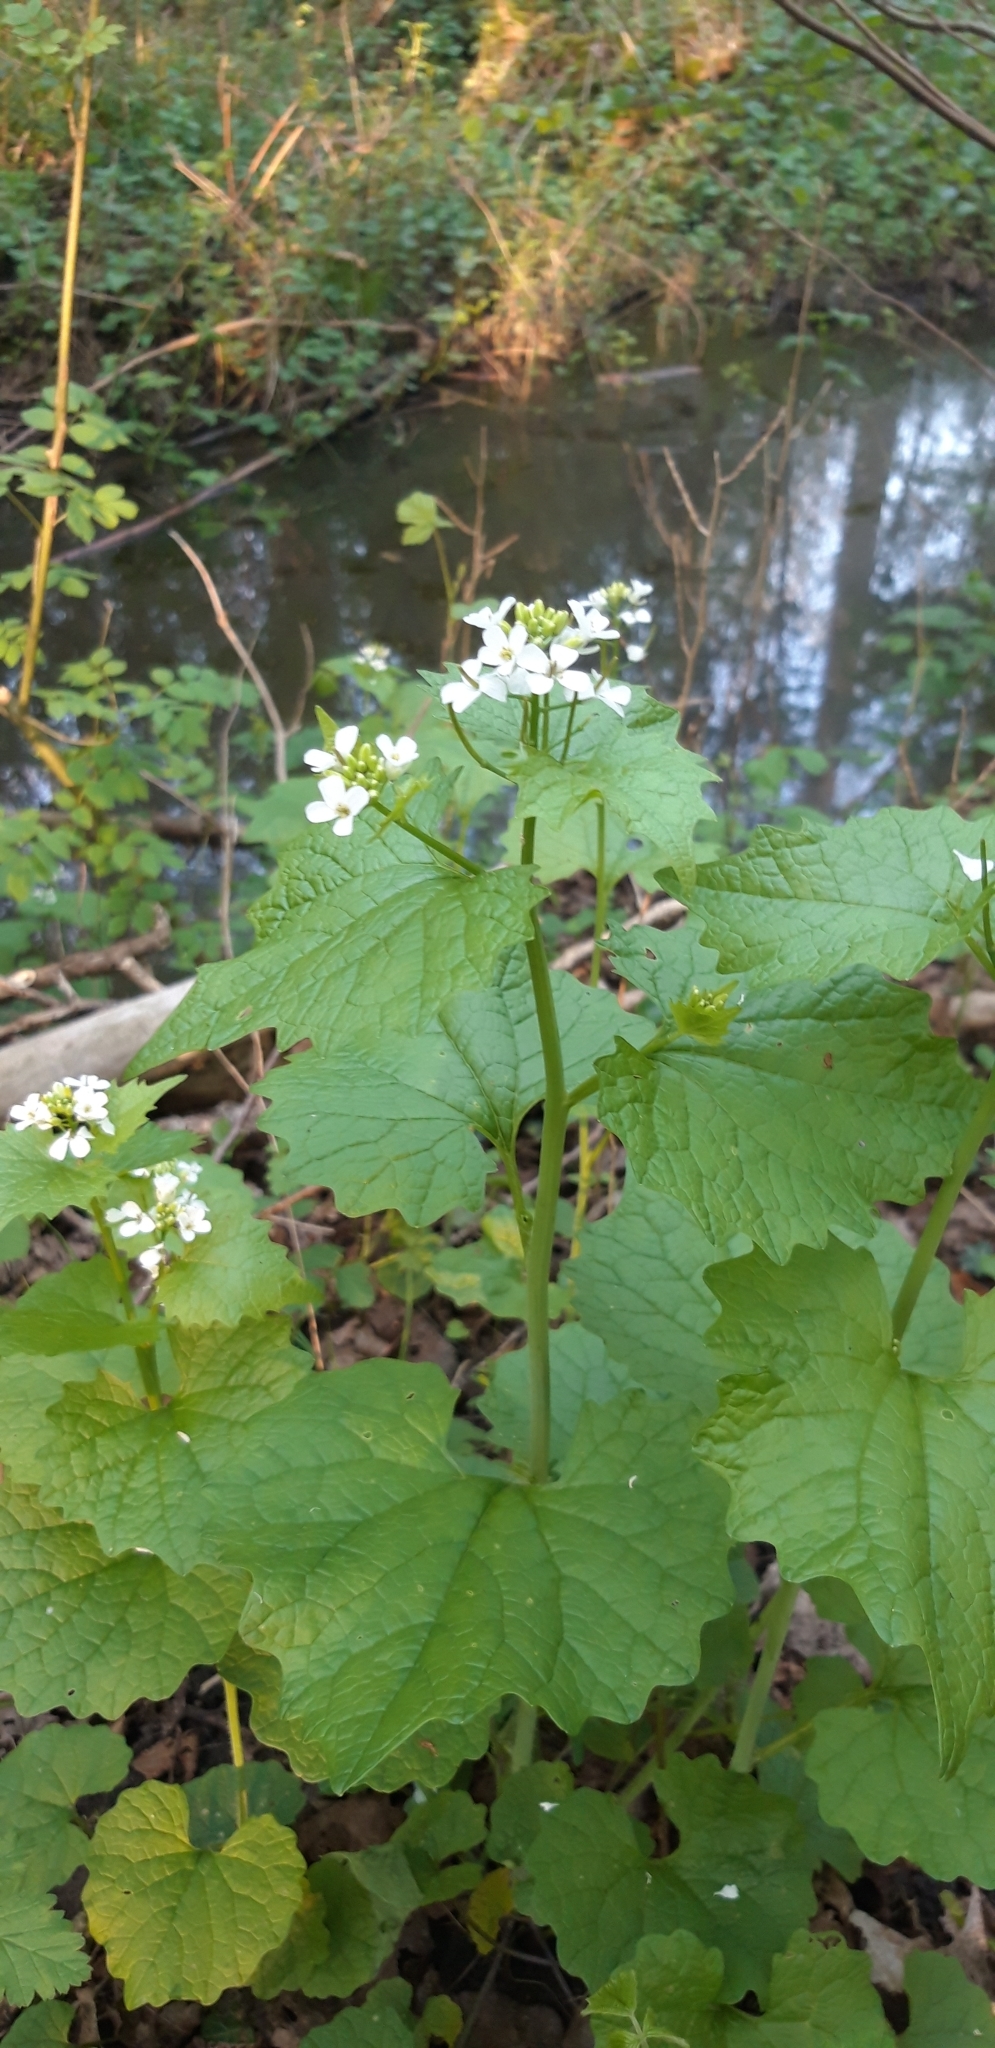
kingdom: Plantae
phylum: Tracheophyta
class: Magnoliopsida
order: Brassicales
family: Brassicaceae
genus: Alliaria
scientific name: Alliaria petiolata
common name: Garlic mustard
